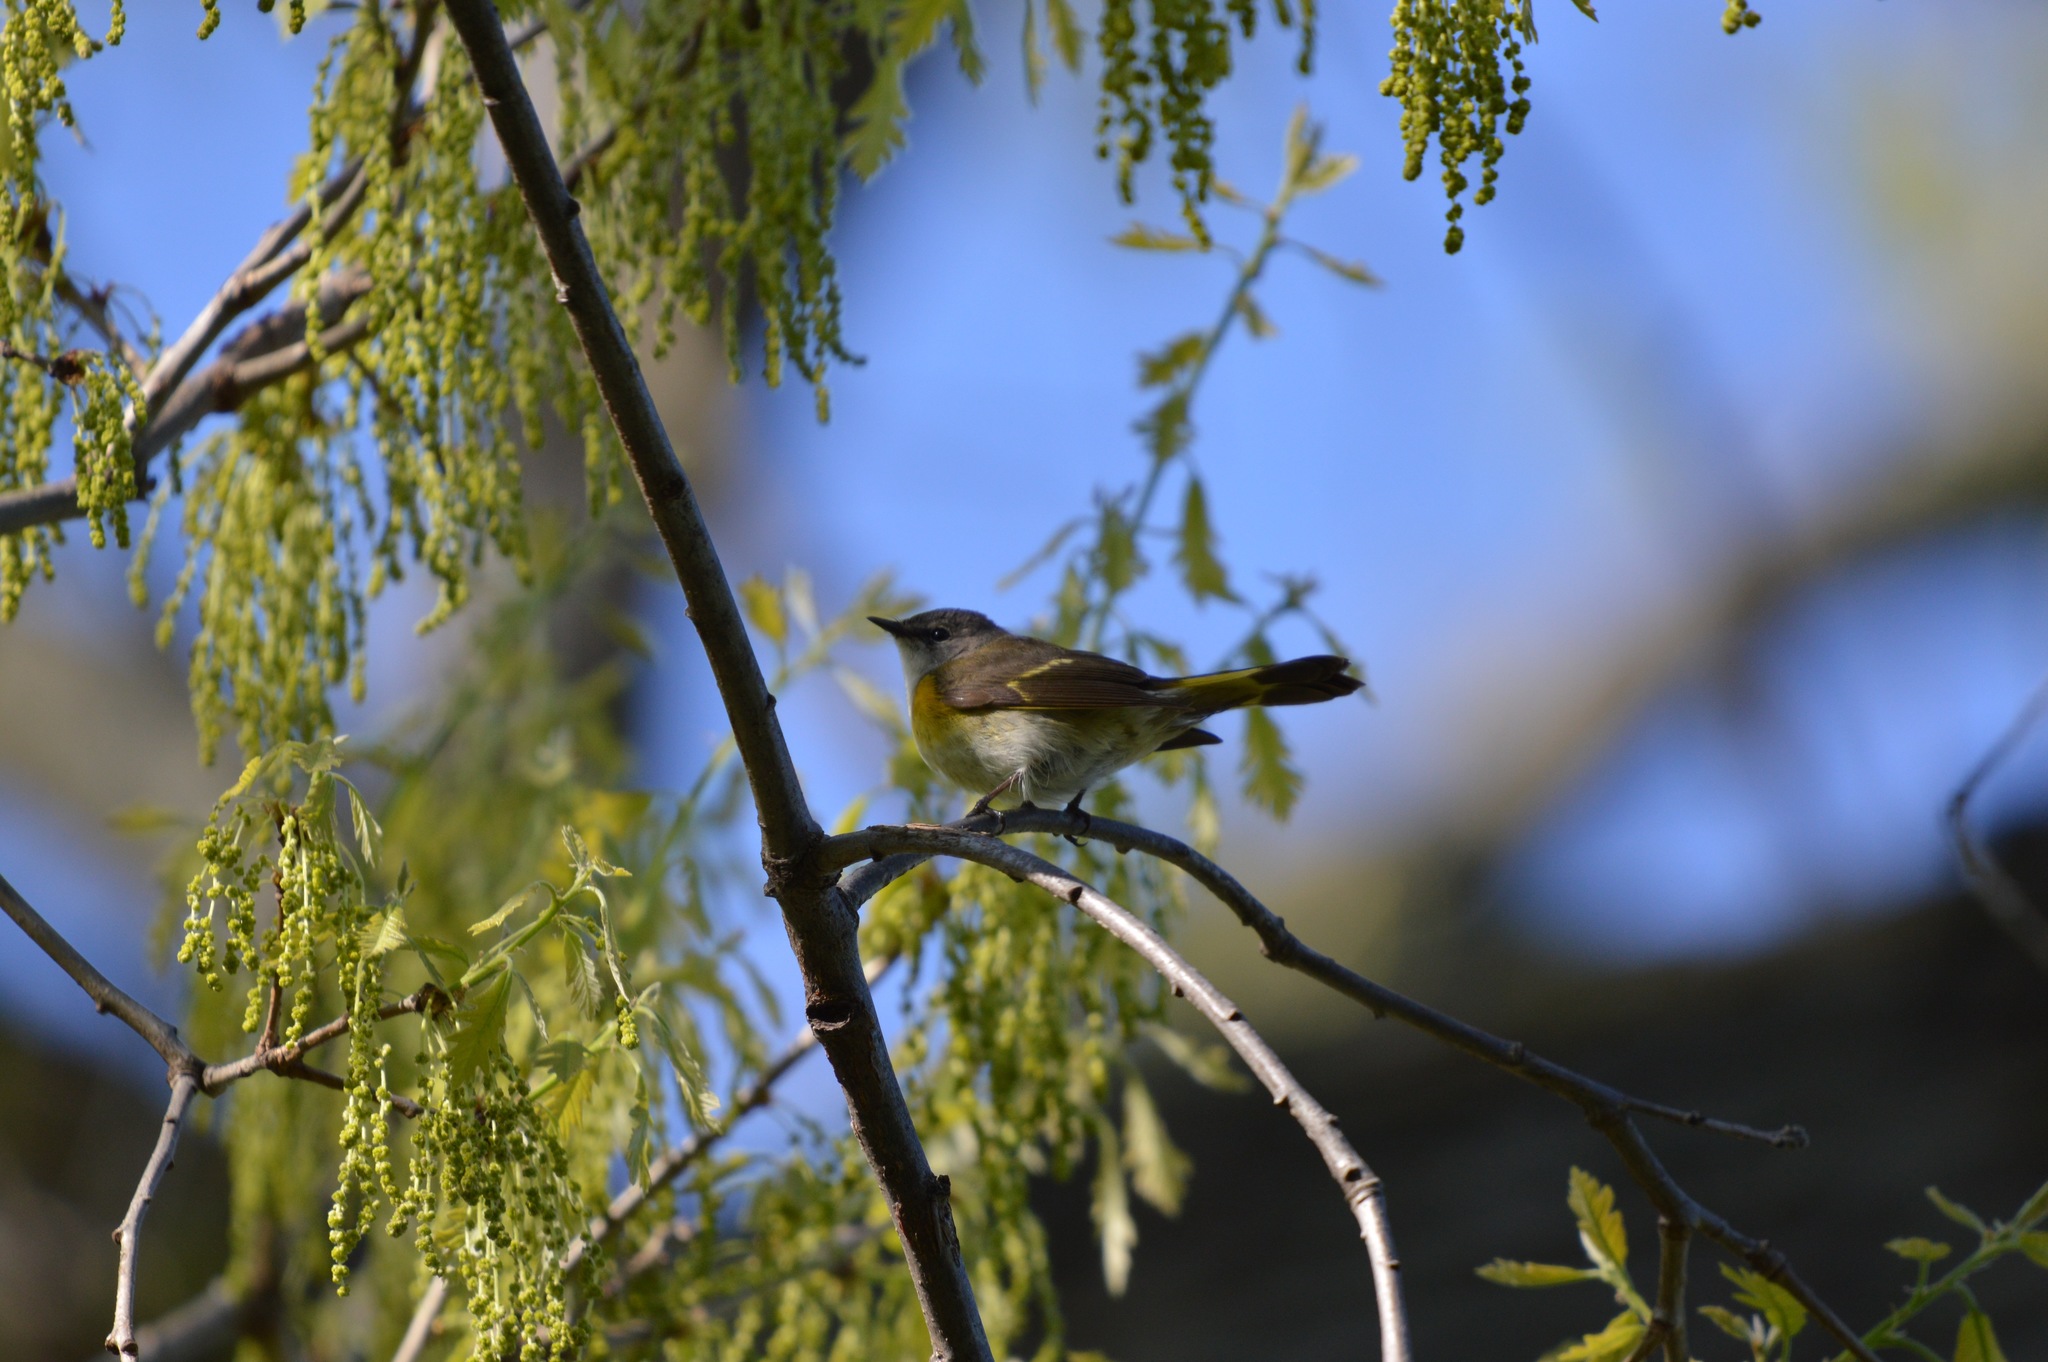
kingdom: Animalia
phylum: Chordata
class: Aves
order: Passeriformes
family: Parulidae
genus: Setophaga
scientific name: Setophaga ruticilla
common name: American redstart
